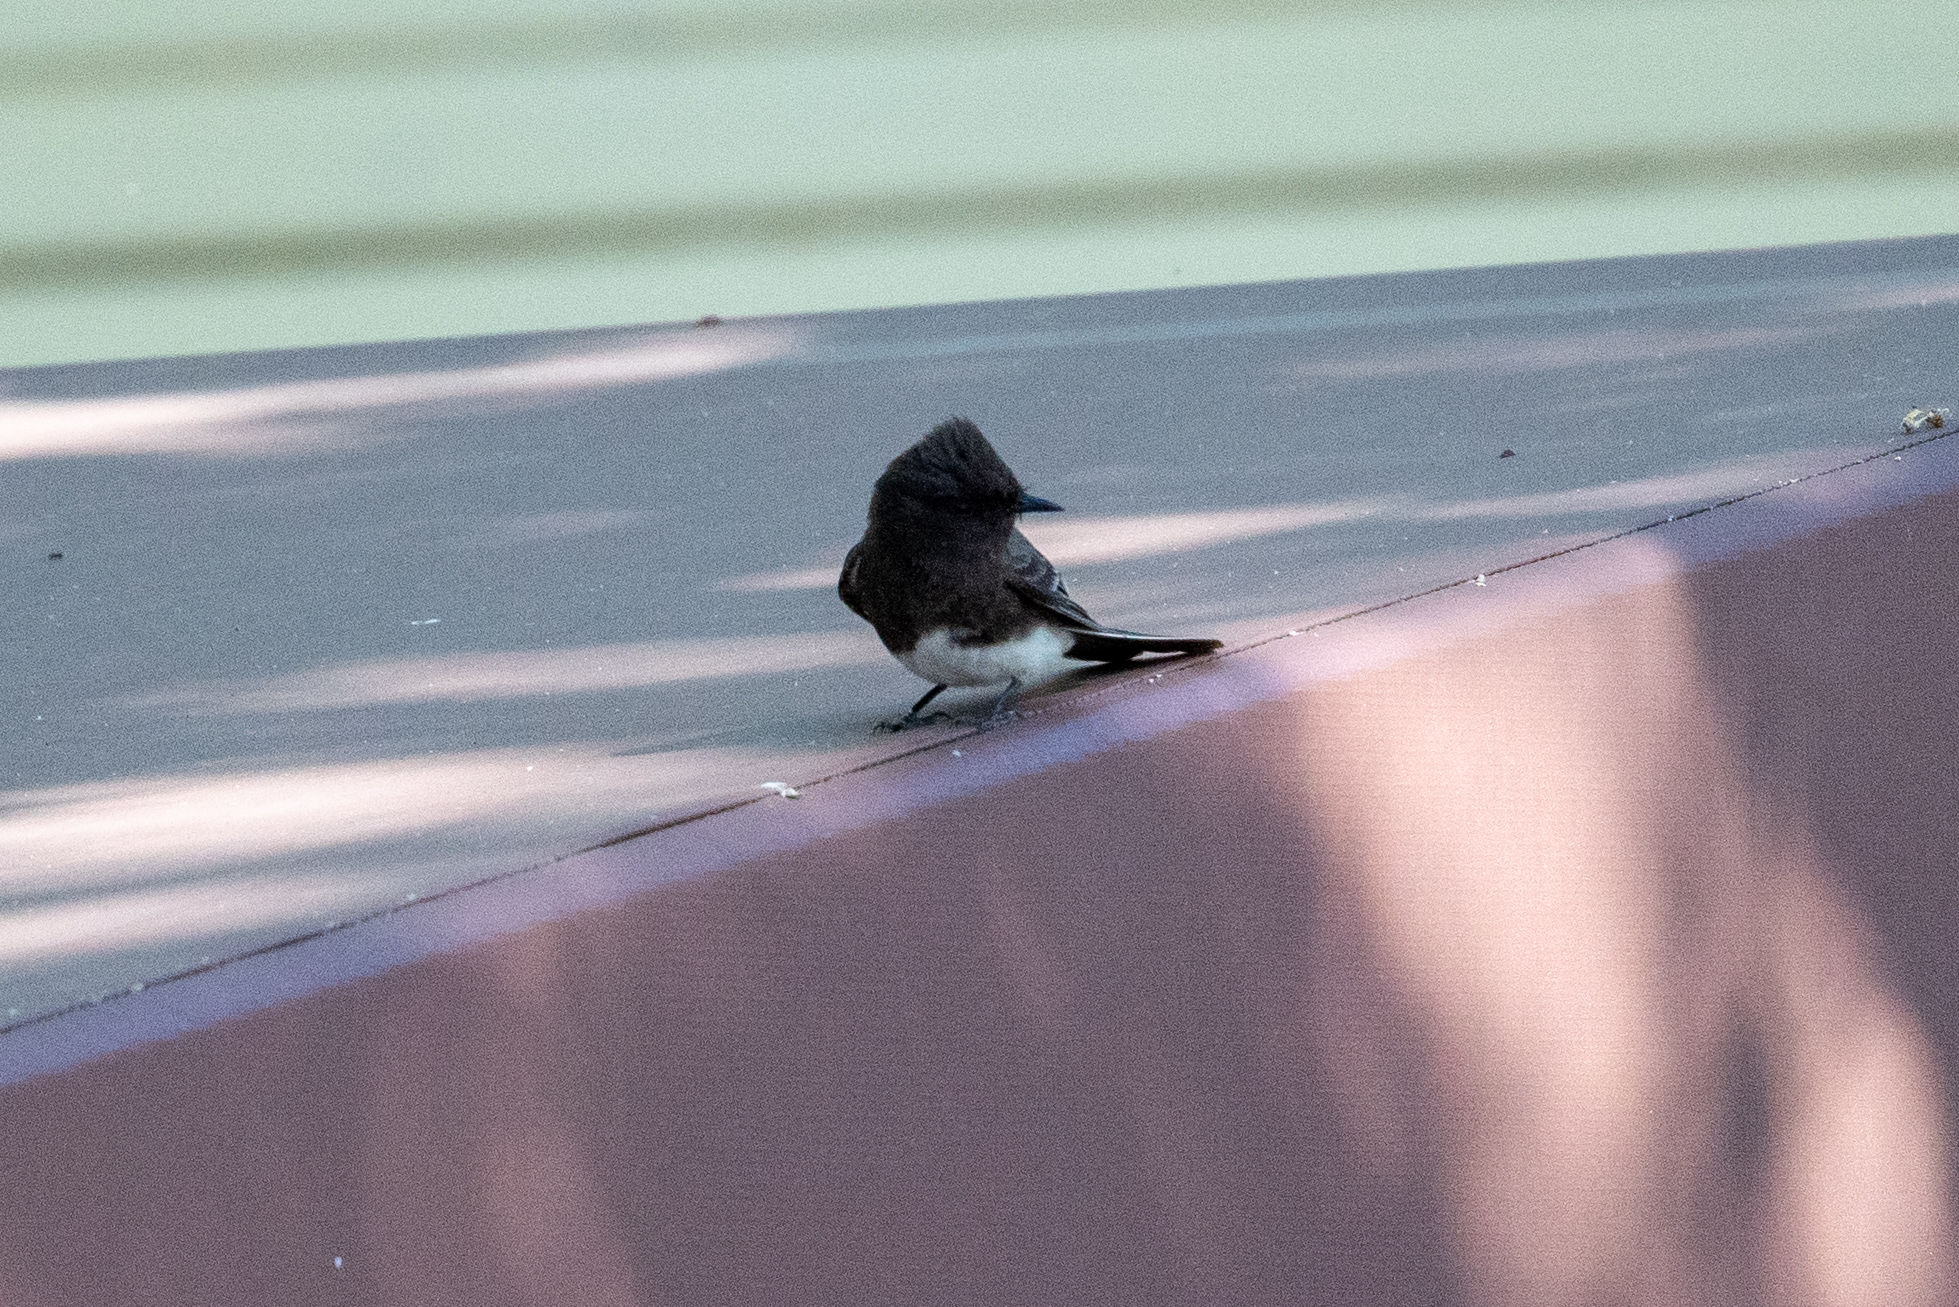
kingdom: Animalia
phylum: Chordata
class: Aves
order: Passeriformes
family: Tyrannidae
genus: Sayornis
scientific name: Sayornis nigricans
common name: Black phoebe
